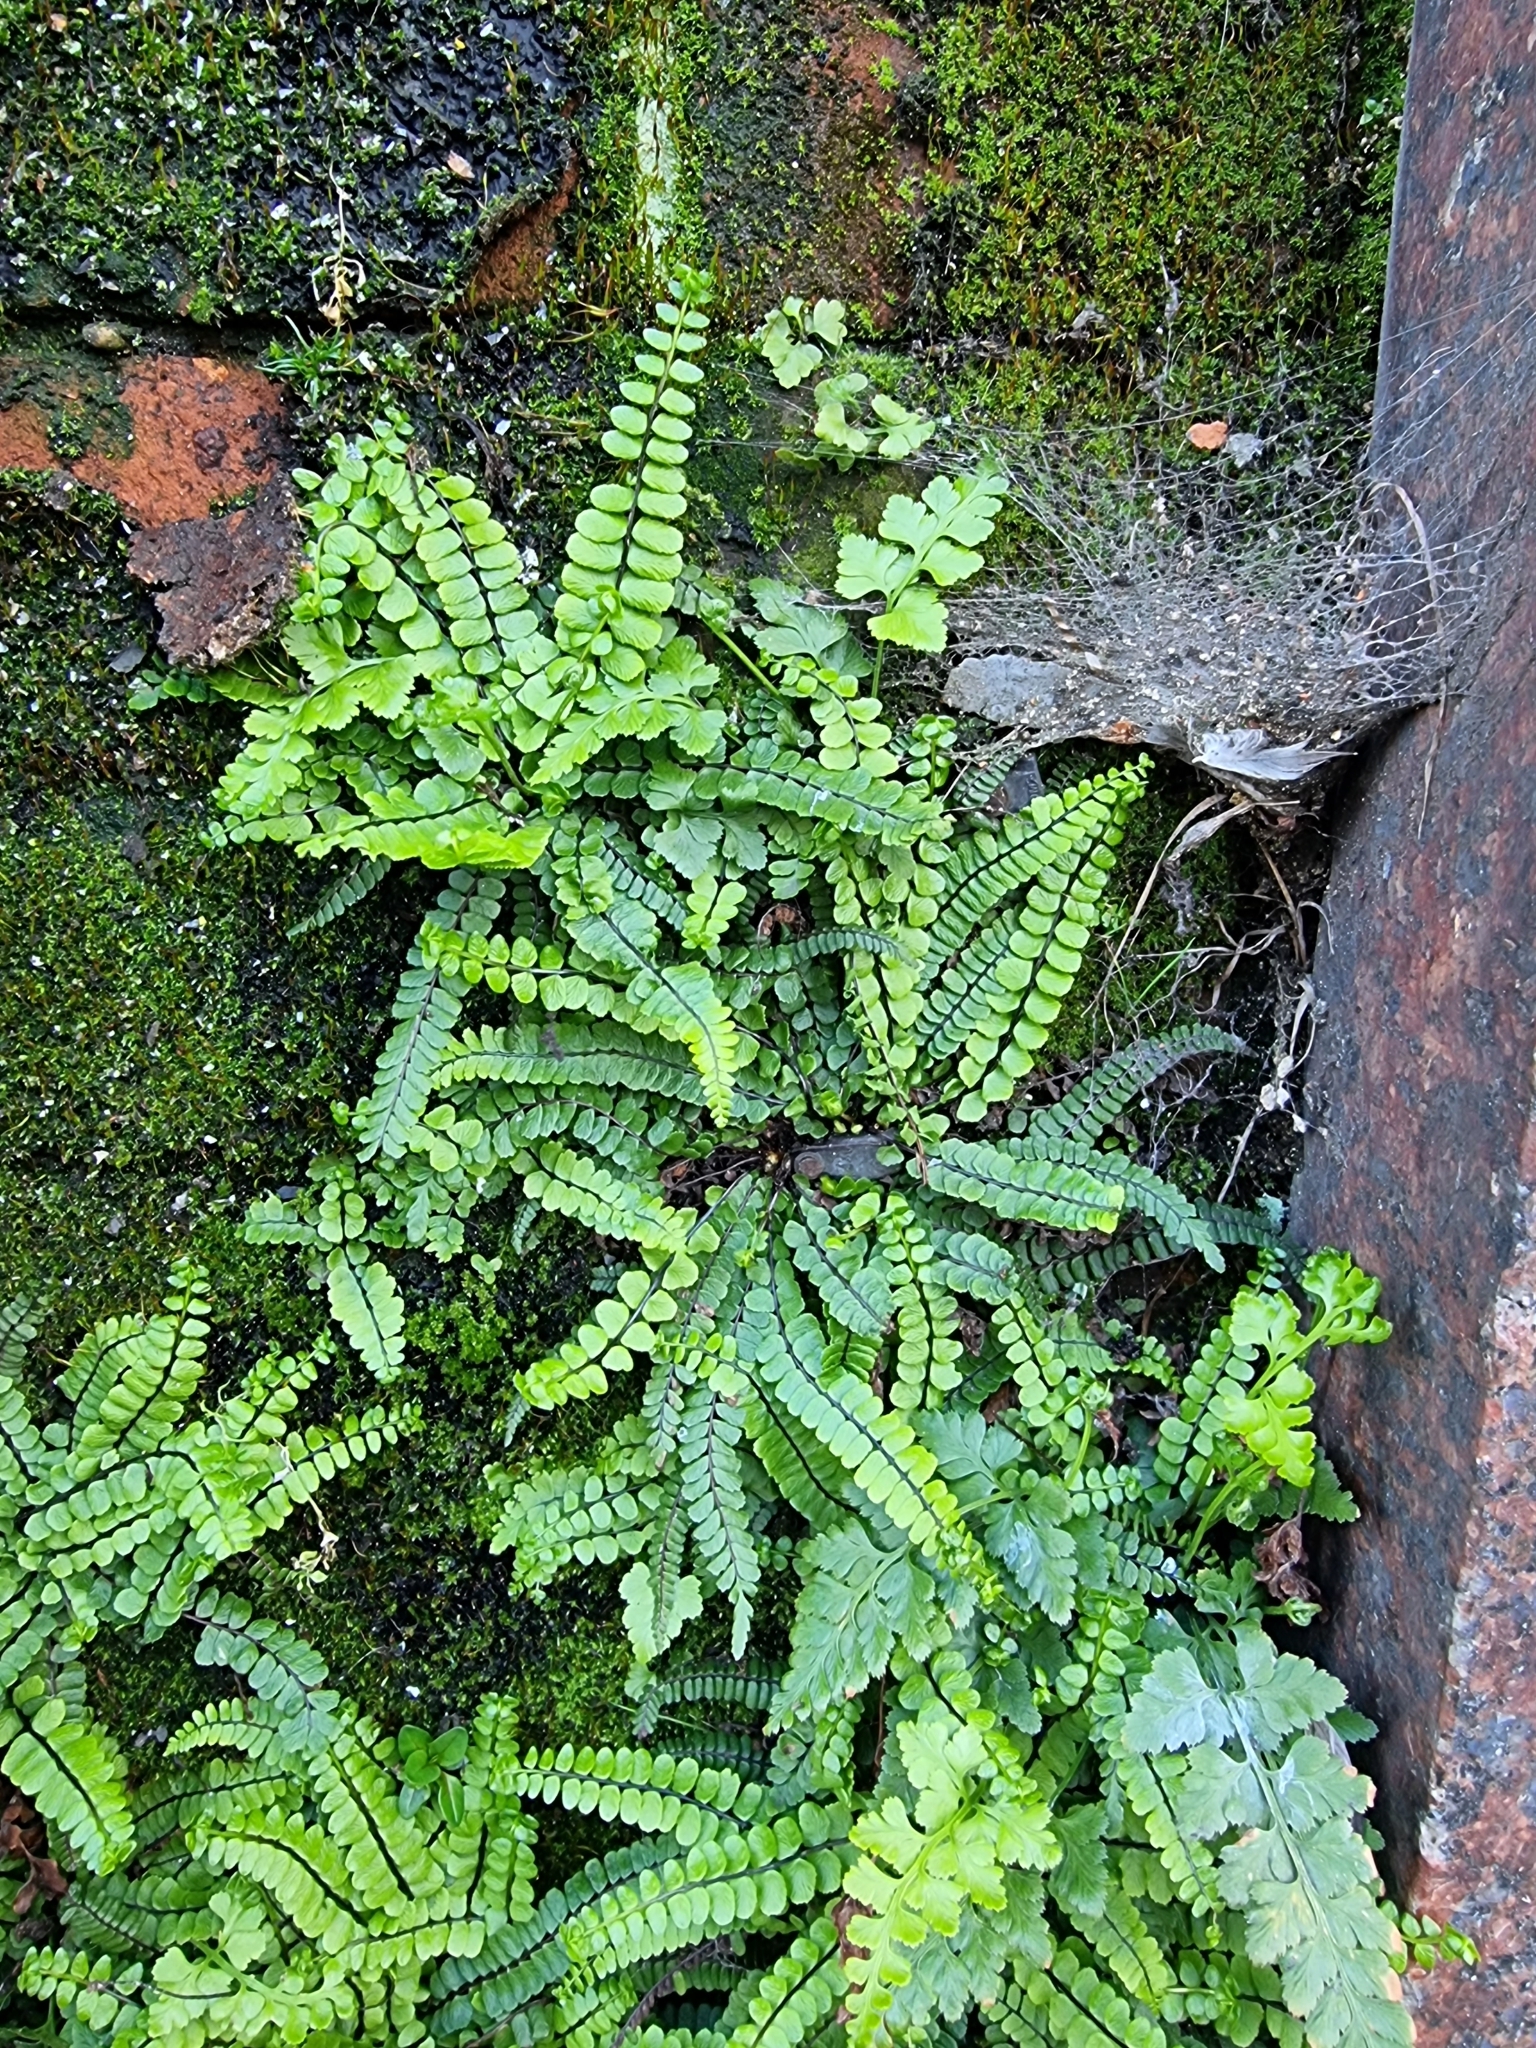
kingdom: Plantae
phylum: Tracheophyta
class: Polypodiopsida
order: Polypodiales
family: Aspleniaceae
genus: Asplenium
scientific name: Asplenium trichomanes
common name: Maidenhair spleenwort
